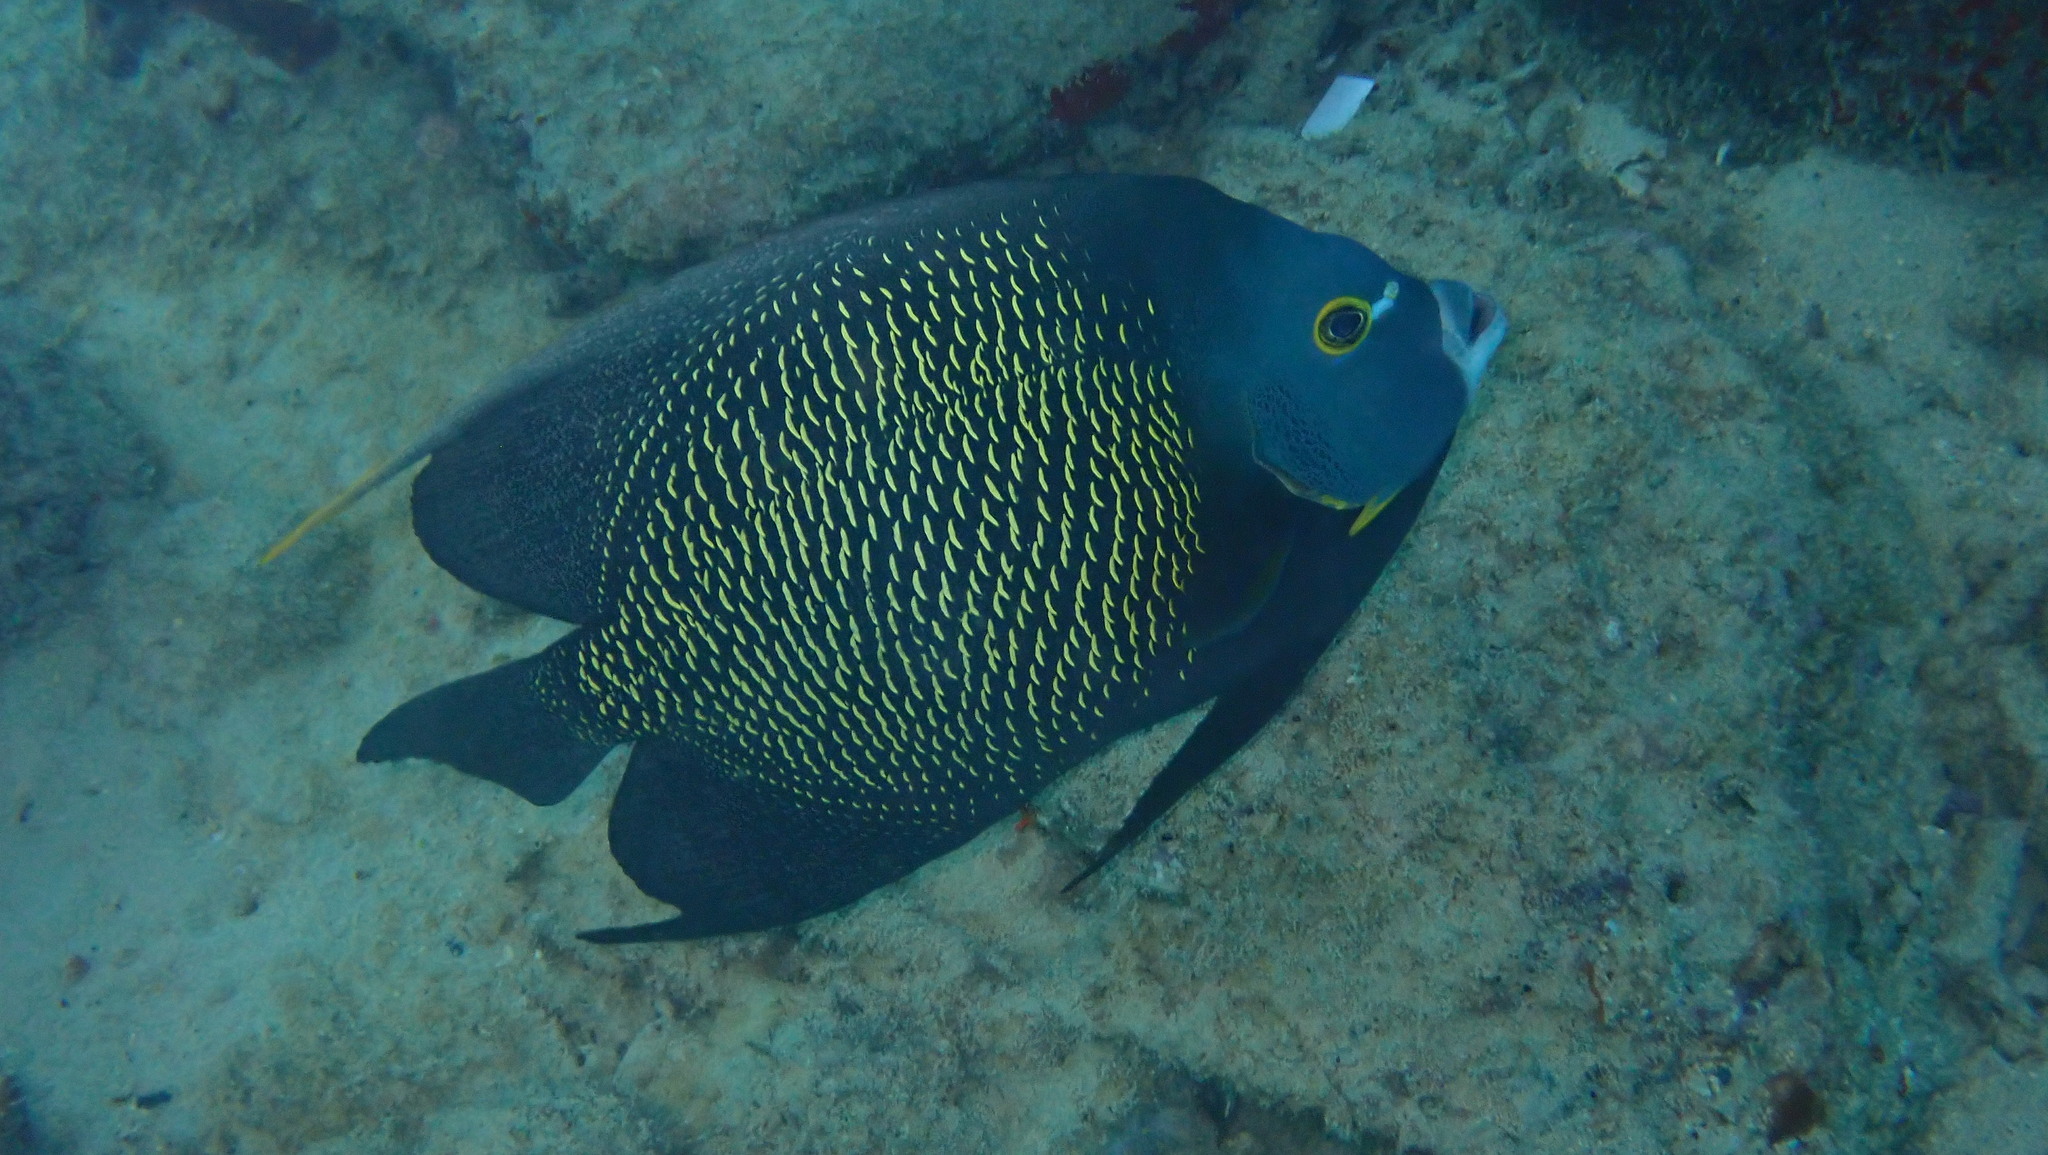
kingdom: Animalia
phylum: Chordata
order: Perciformes
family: Pomacanthidae
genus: Pomacanthus
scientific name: Pomacanthus paru
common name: French angelfish
